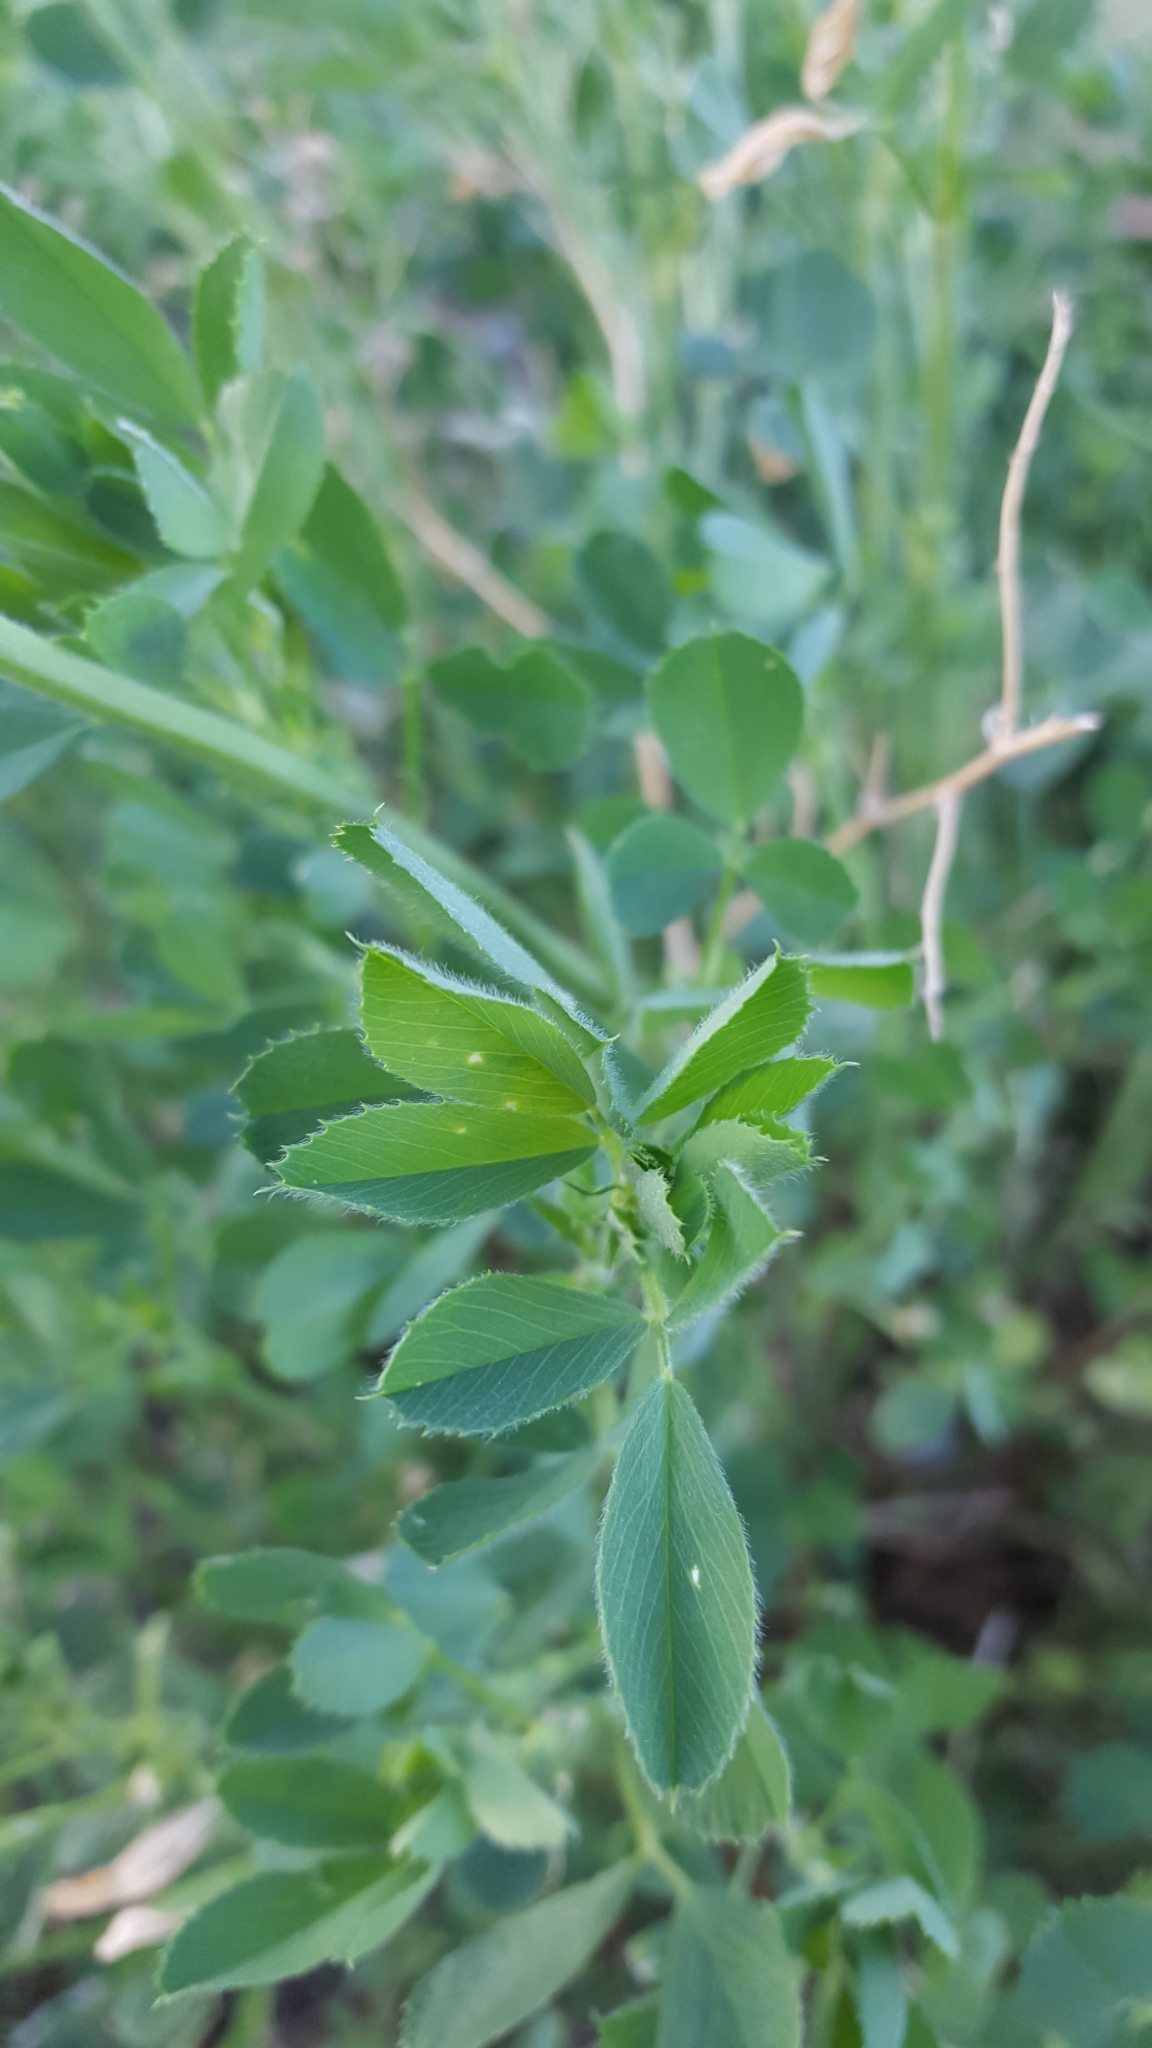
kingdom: Plantae
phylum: Tracheophyta
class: Magnoliopsida
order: Fabales
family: Fabaceae
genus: Medicago
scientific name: Medicago sativa
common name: Alfalfa
